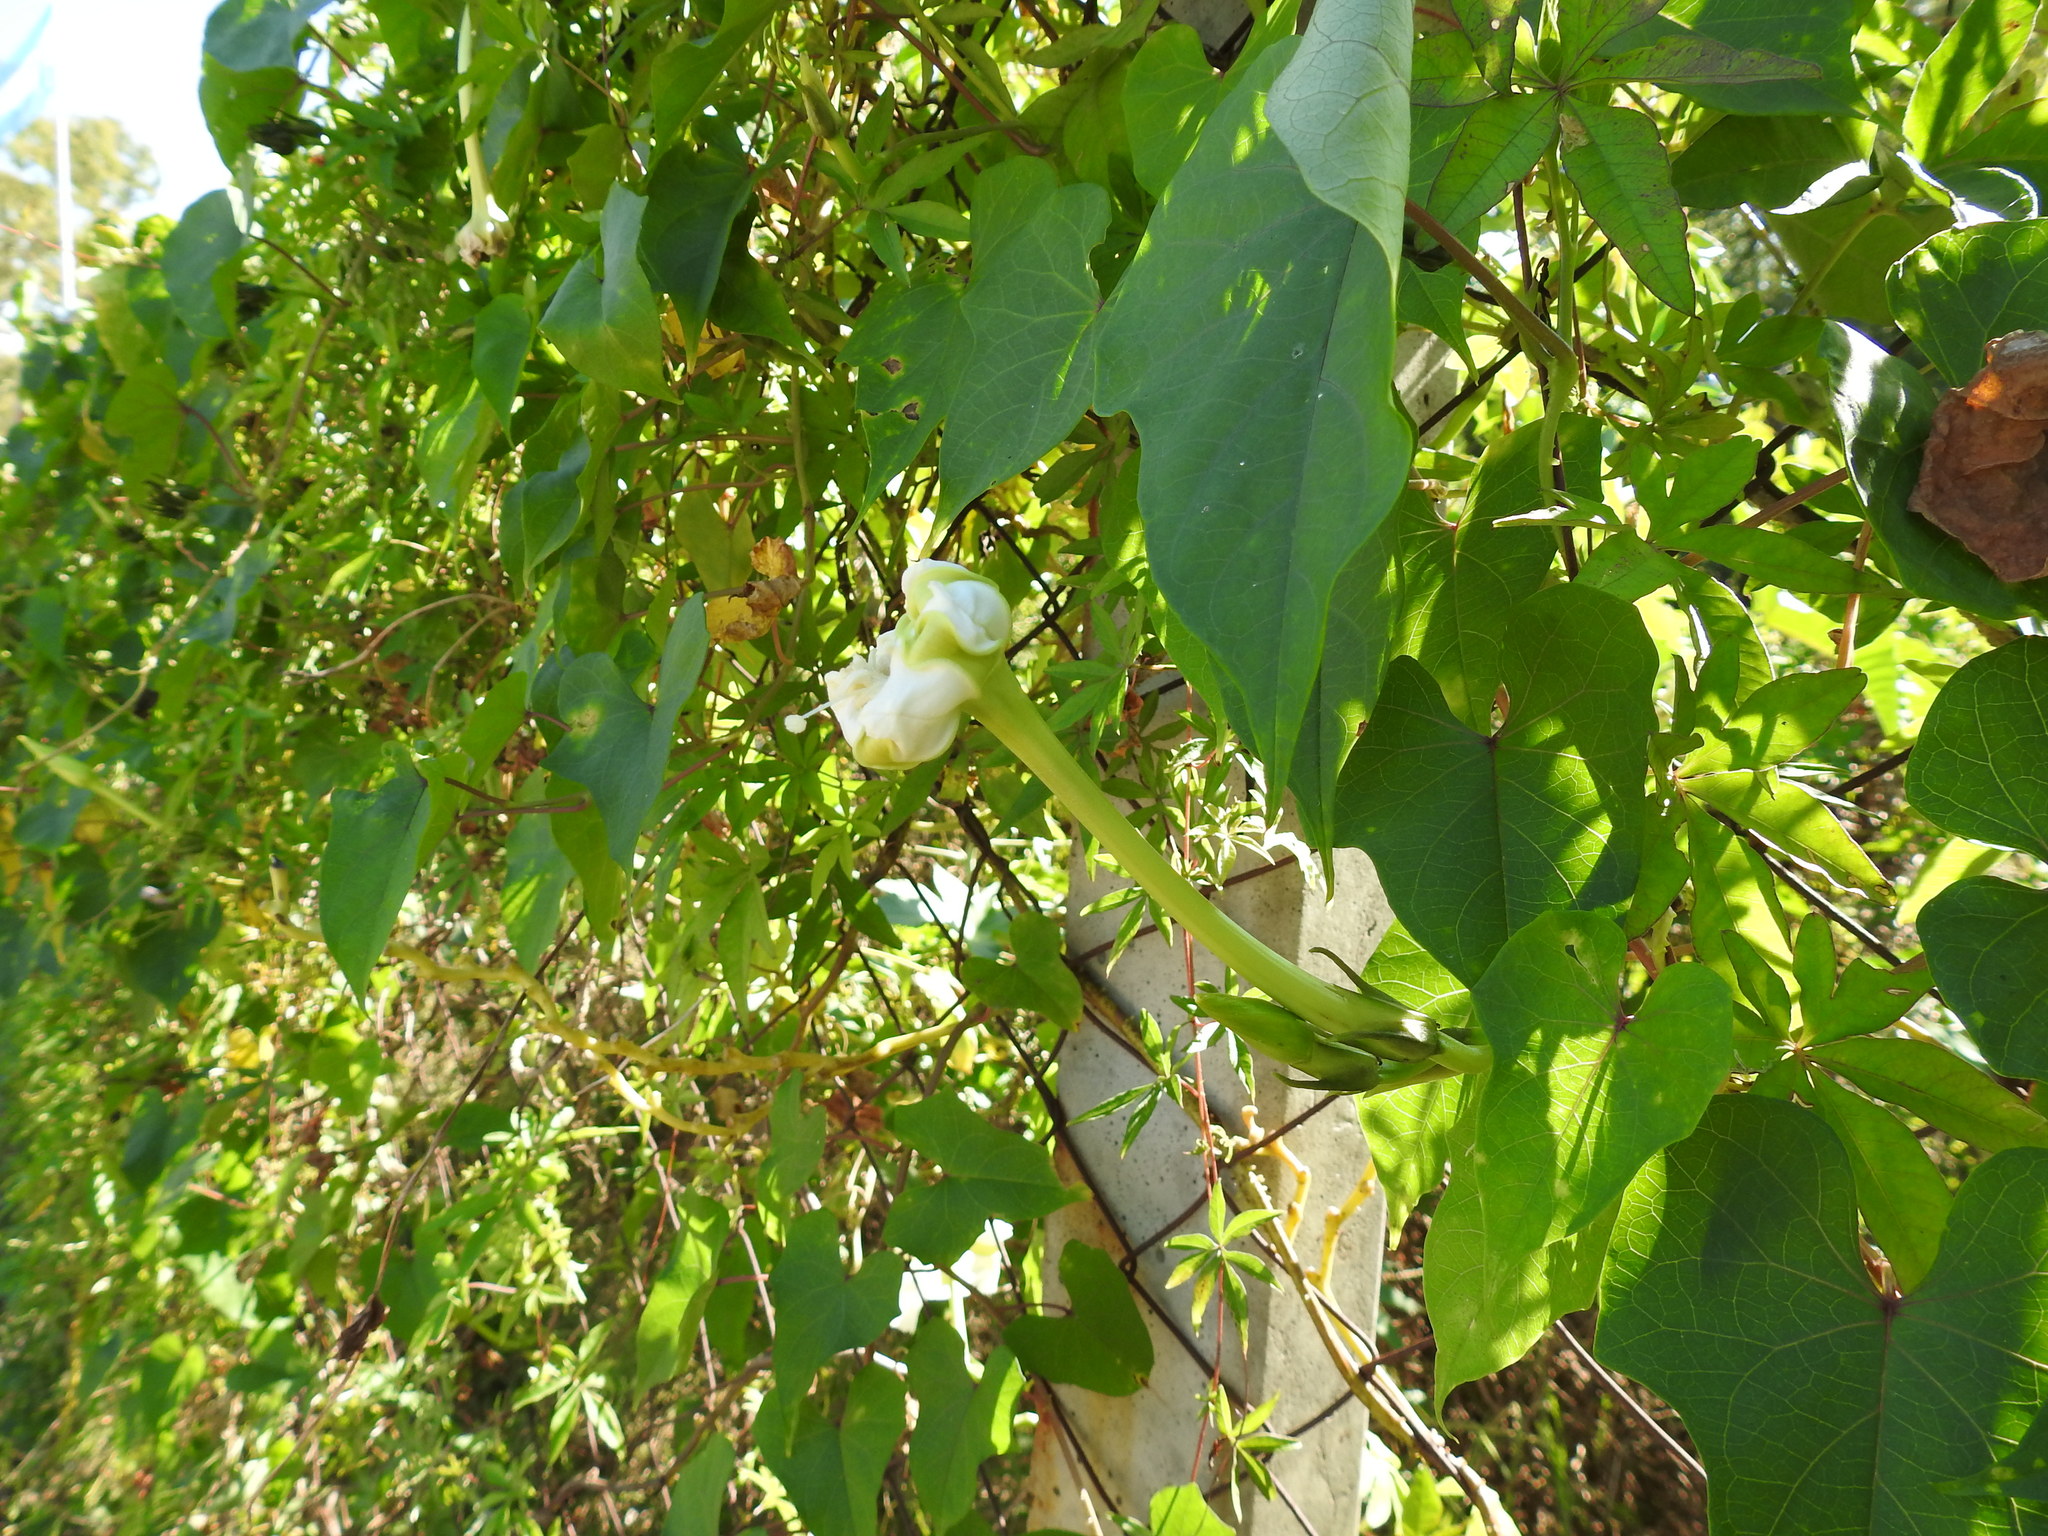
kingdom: Plantae
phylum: Tracheophyta
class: Magnoliopsida
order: Solanales
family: Convolvulaceae
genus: Ipomoea
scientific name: Ipomoea alba
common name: Moonflower
